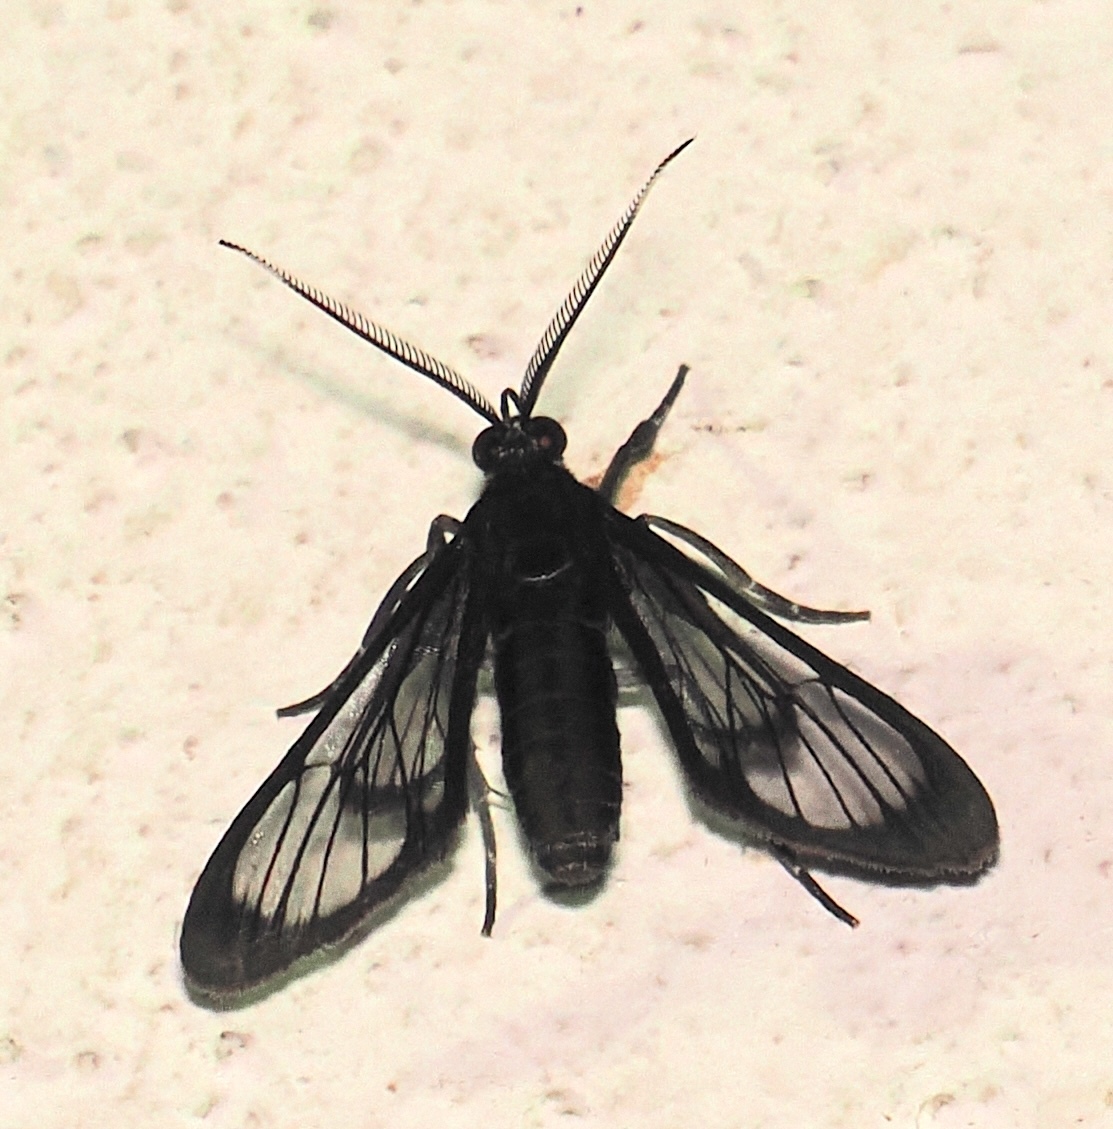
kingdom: Animalia
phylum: Arthropoda
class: Insecta
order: Lepidoptera
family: Erebidae
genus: Loxophlebia
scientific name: Loxophlebia austeria
